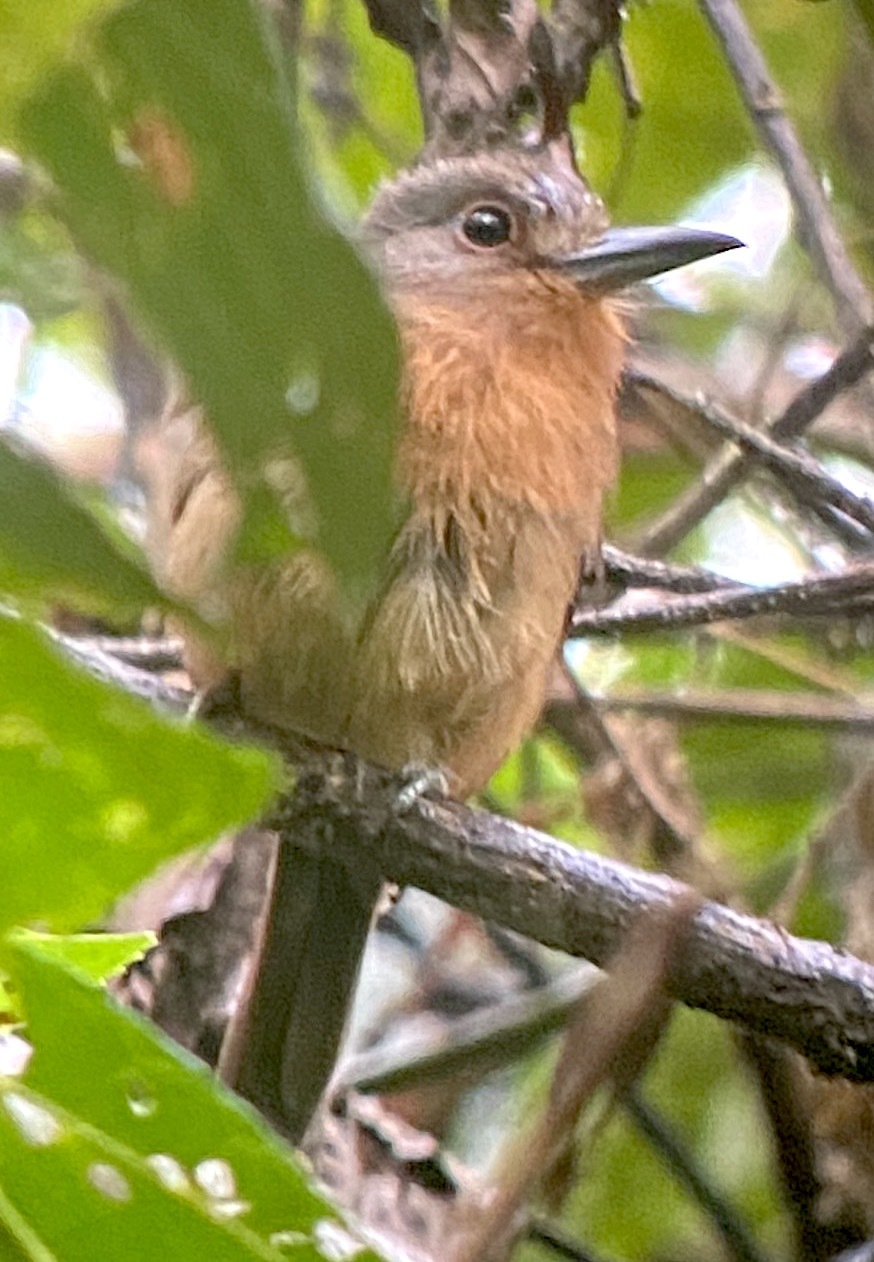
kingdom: Animalia
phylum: Chordata
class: Aves
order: Piciformes
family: Bucconidae
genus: Nonnula
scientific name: Nonnula brunnea
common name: Brown nunlet
